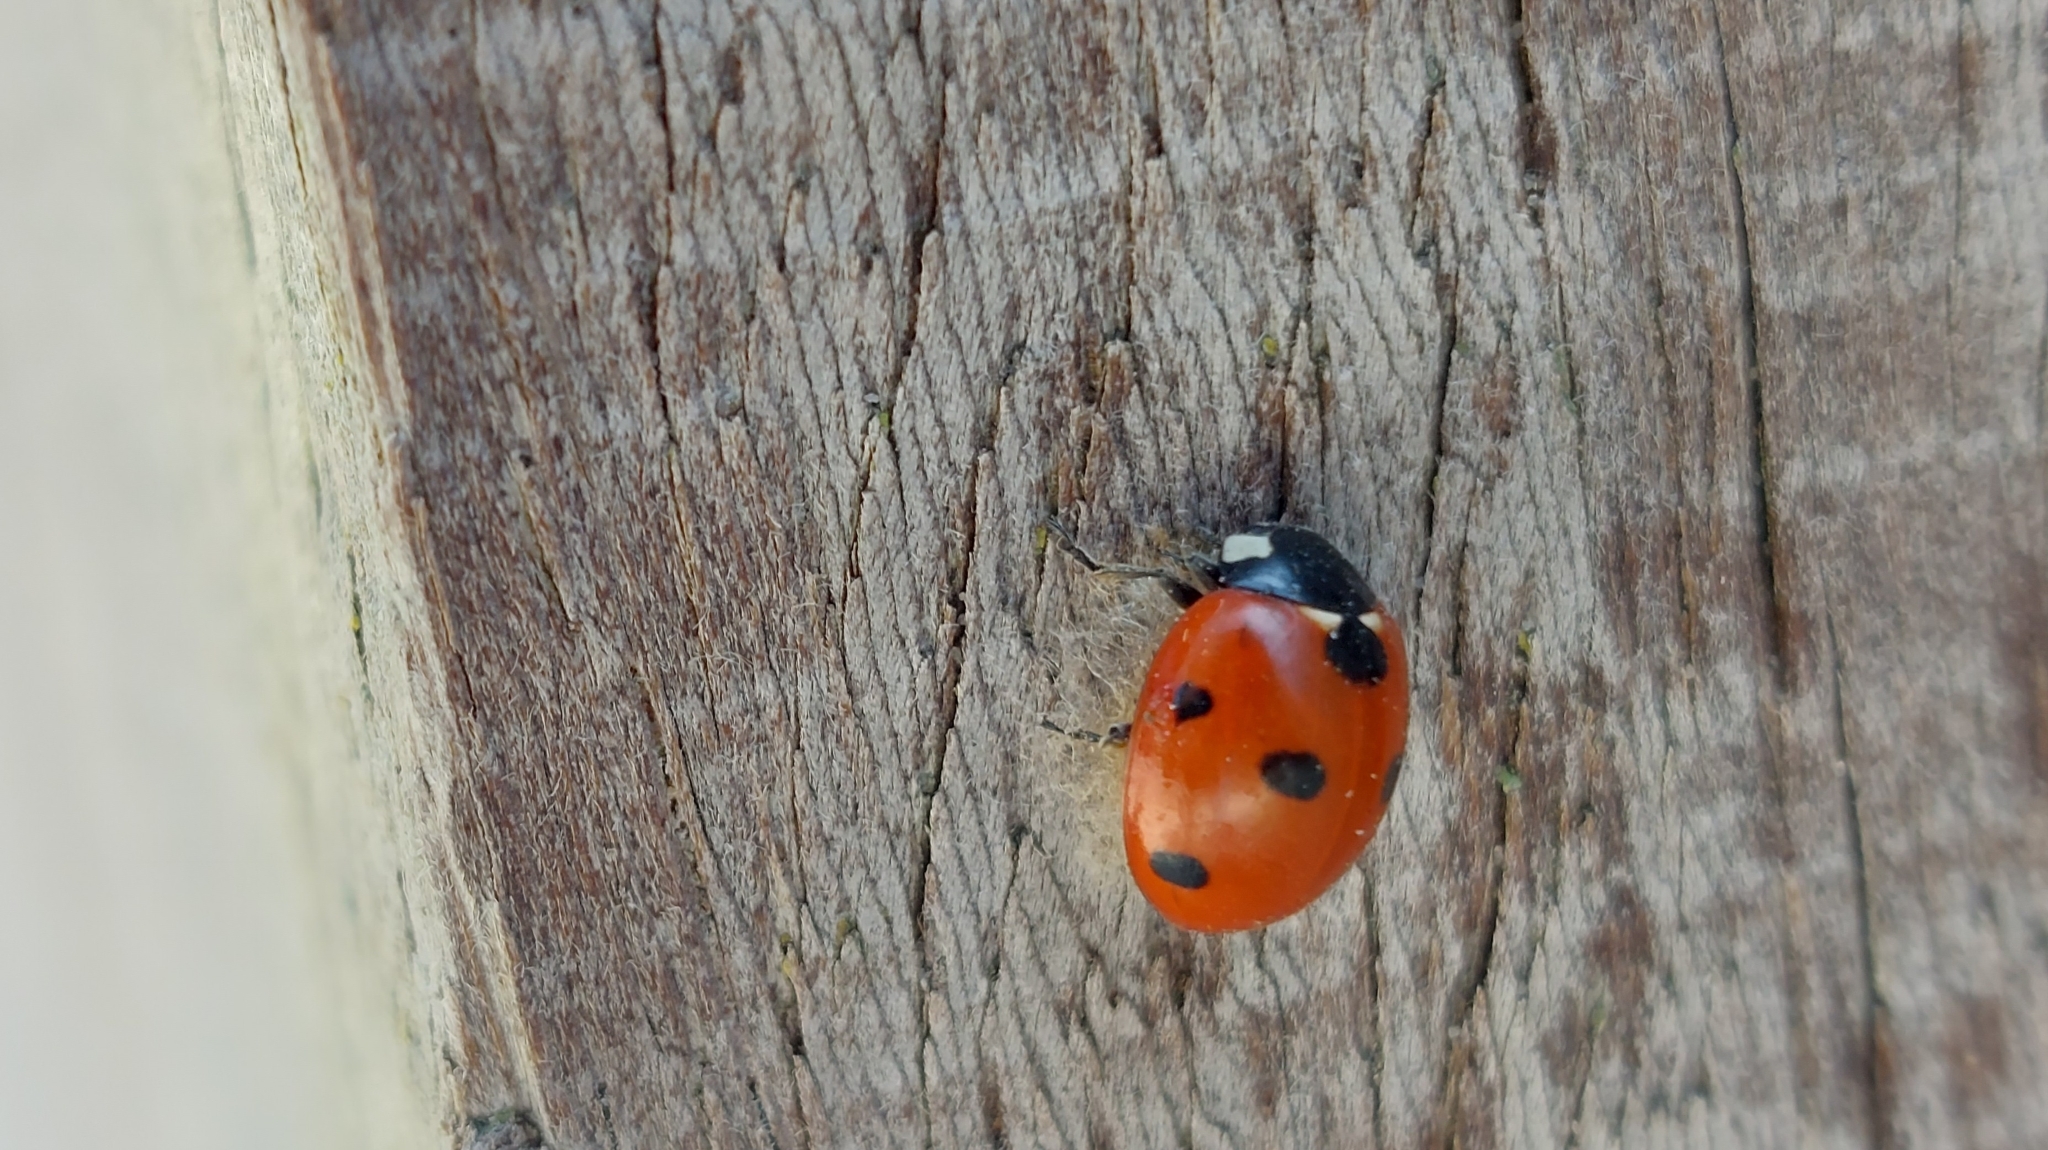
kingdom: Animalia
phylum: Arthropoda
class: Insecta
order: Coleoptera
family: Coccinellidae
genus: Coccinella
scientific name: Coccinella septempunctata
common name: Sevenspotted lady beetle
